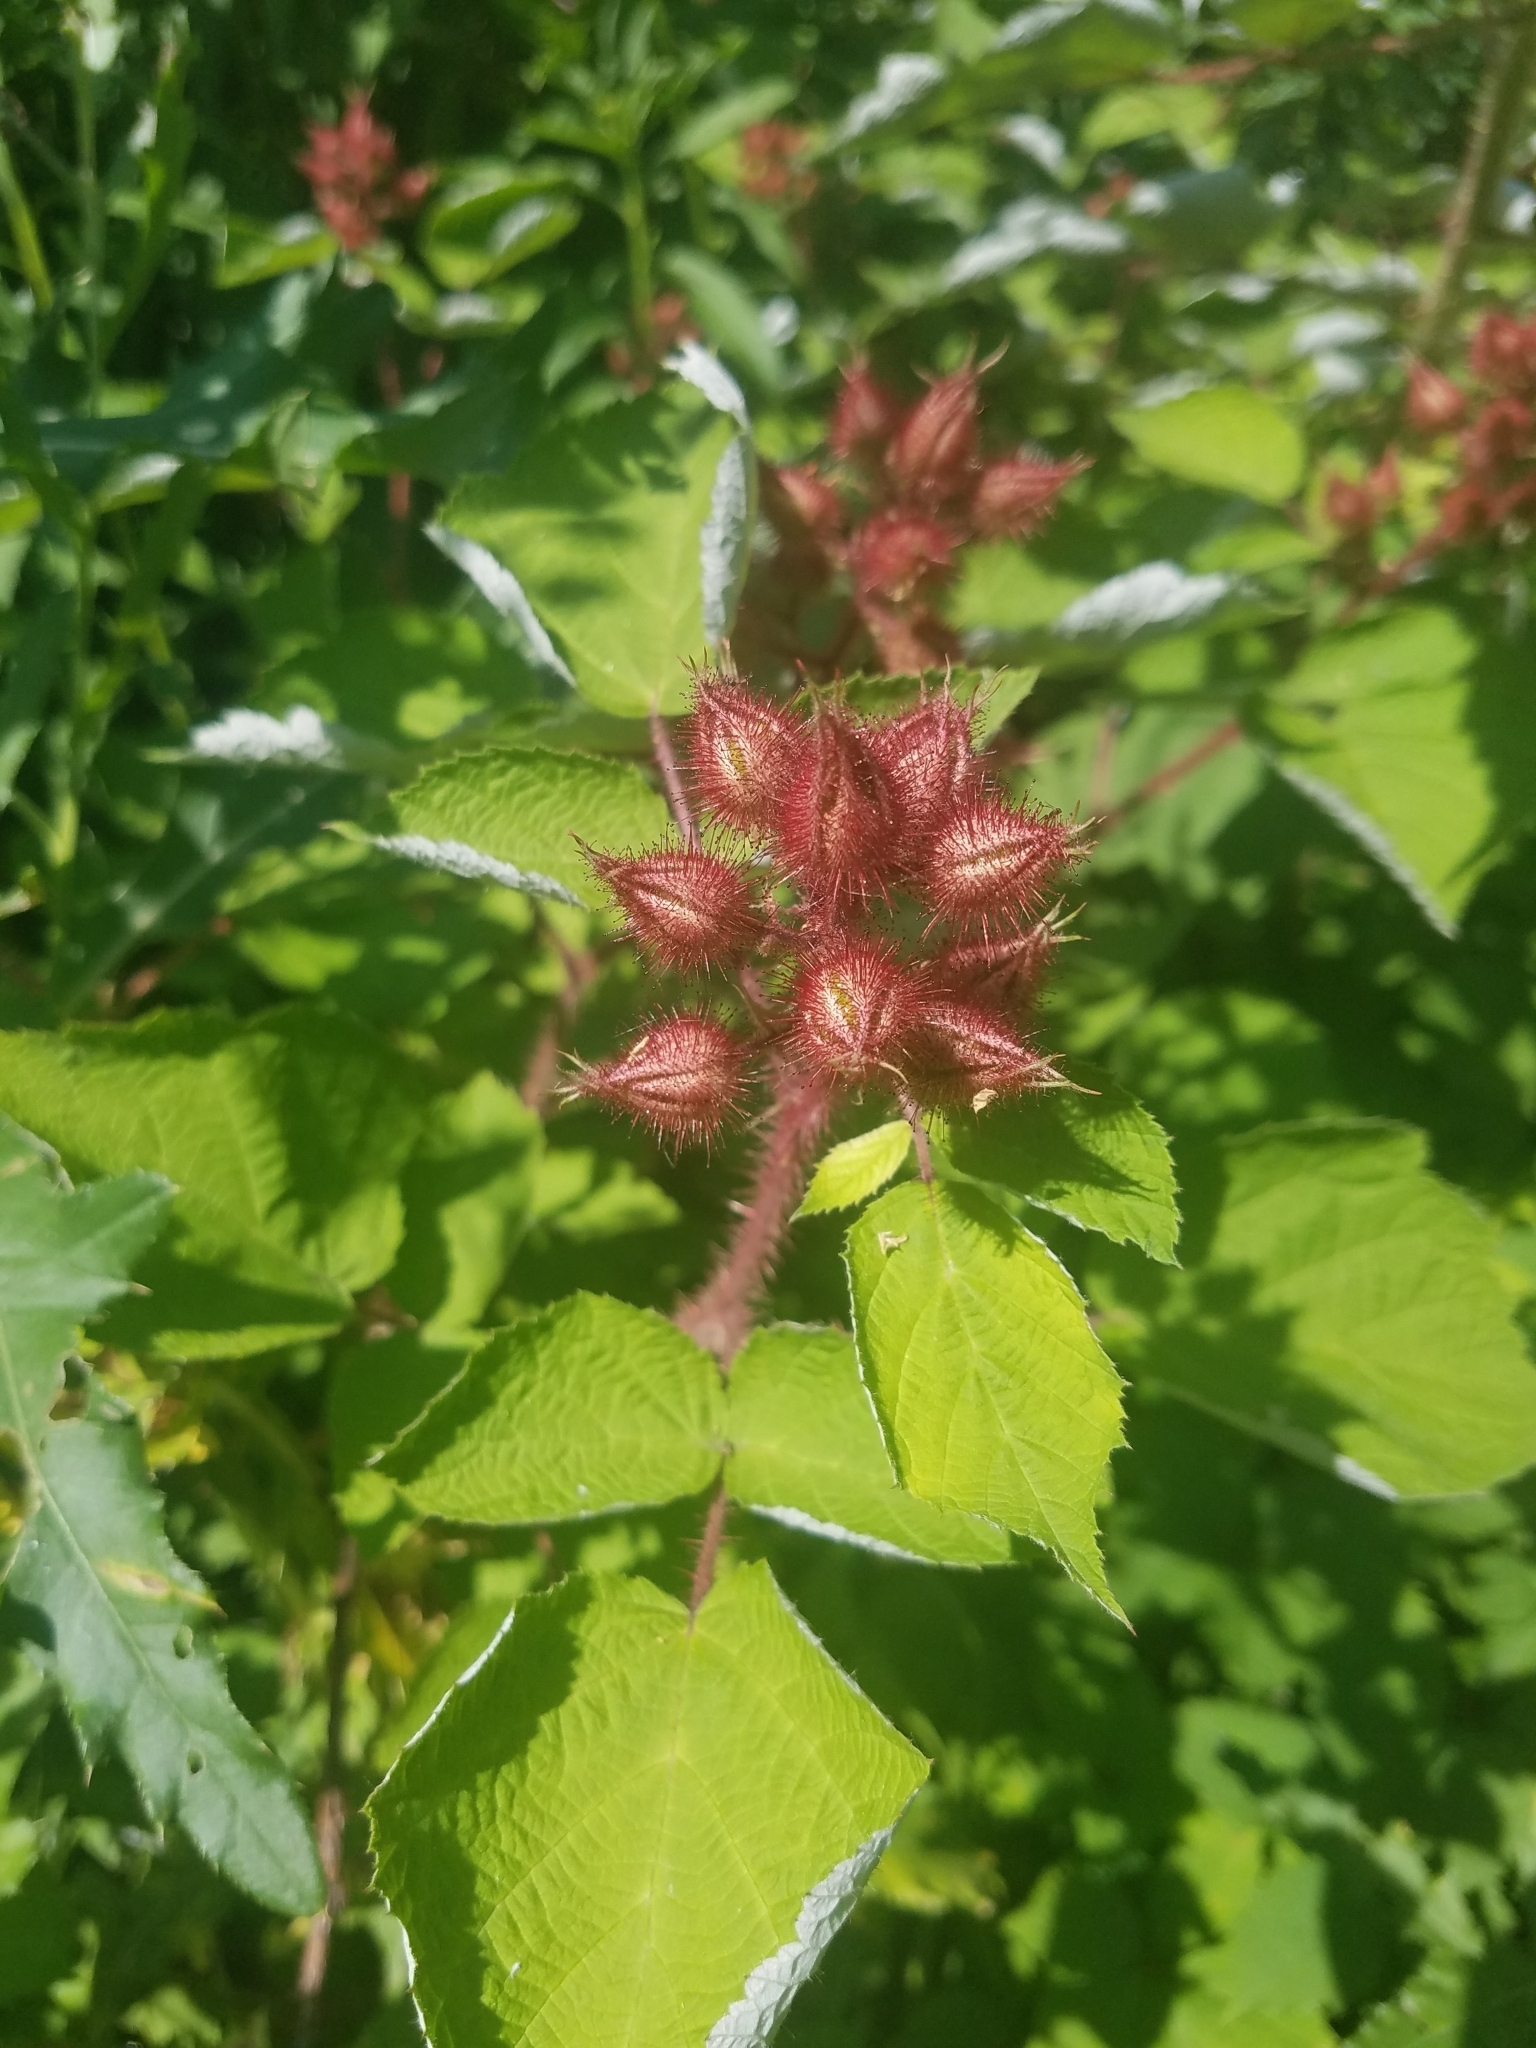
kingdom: Plantae
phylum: Tracheophyta
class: Magnoliopsida
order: Rosales
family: Rosaceae
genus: Rubus
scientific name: Rubus phoenicolasius
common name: Japanese wineberry
